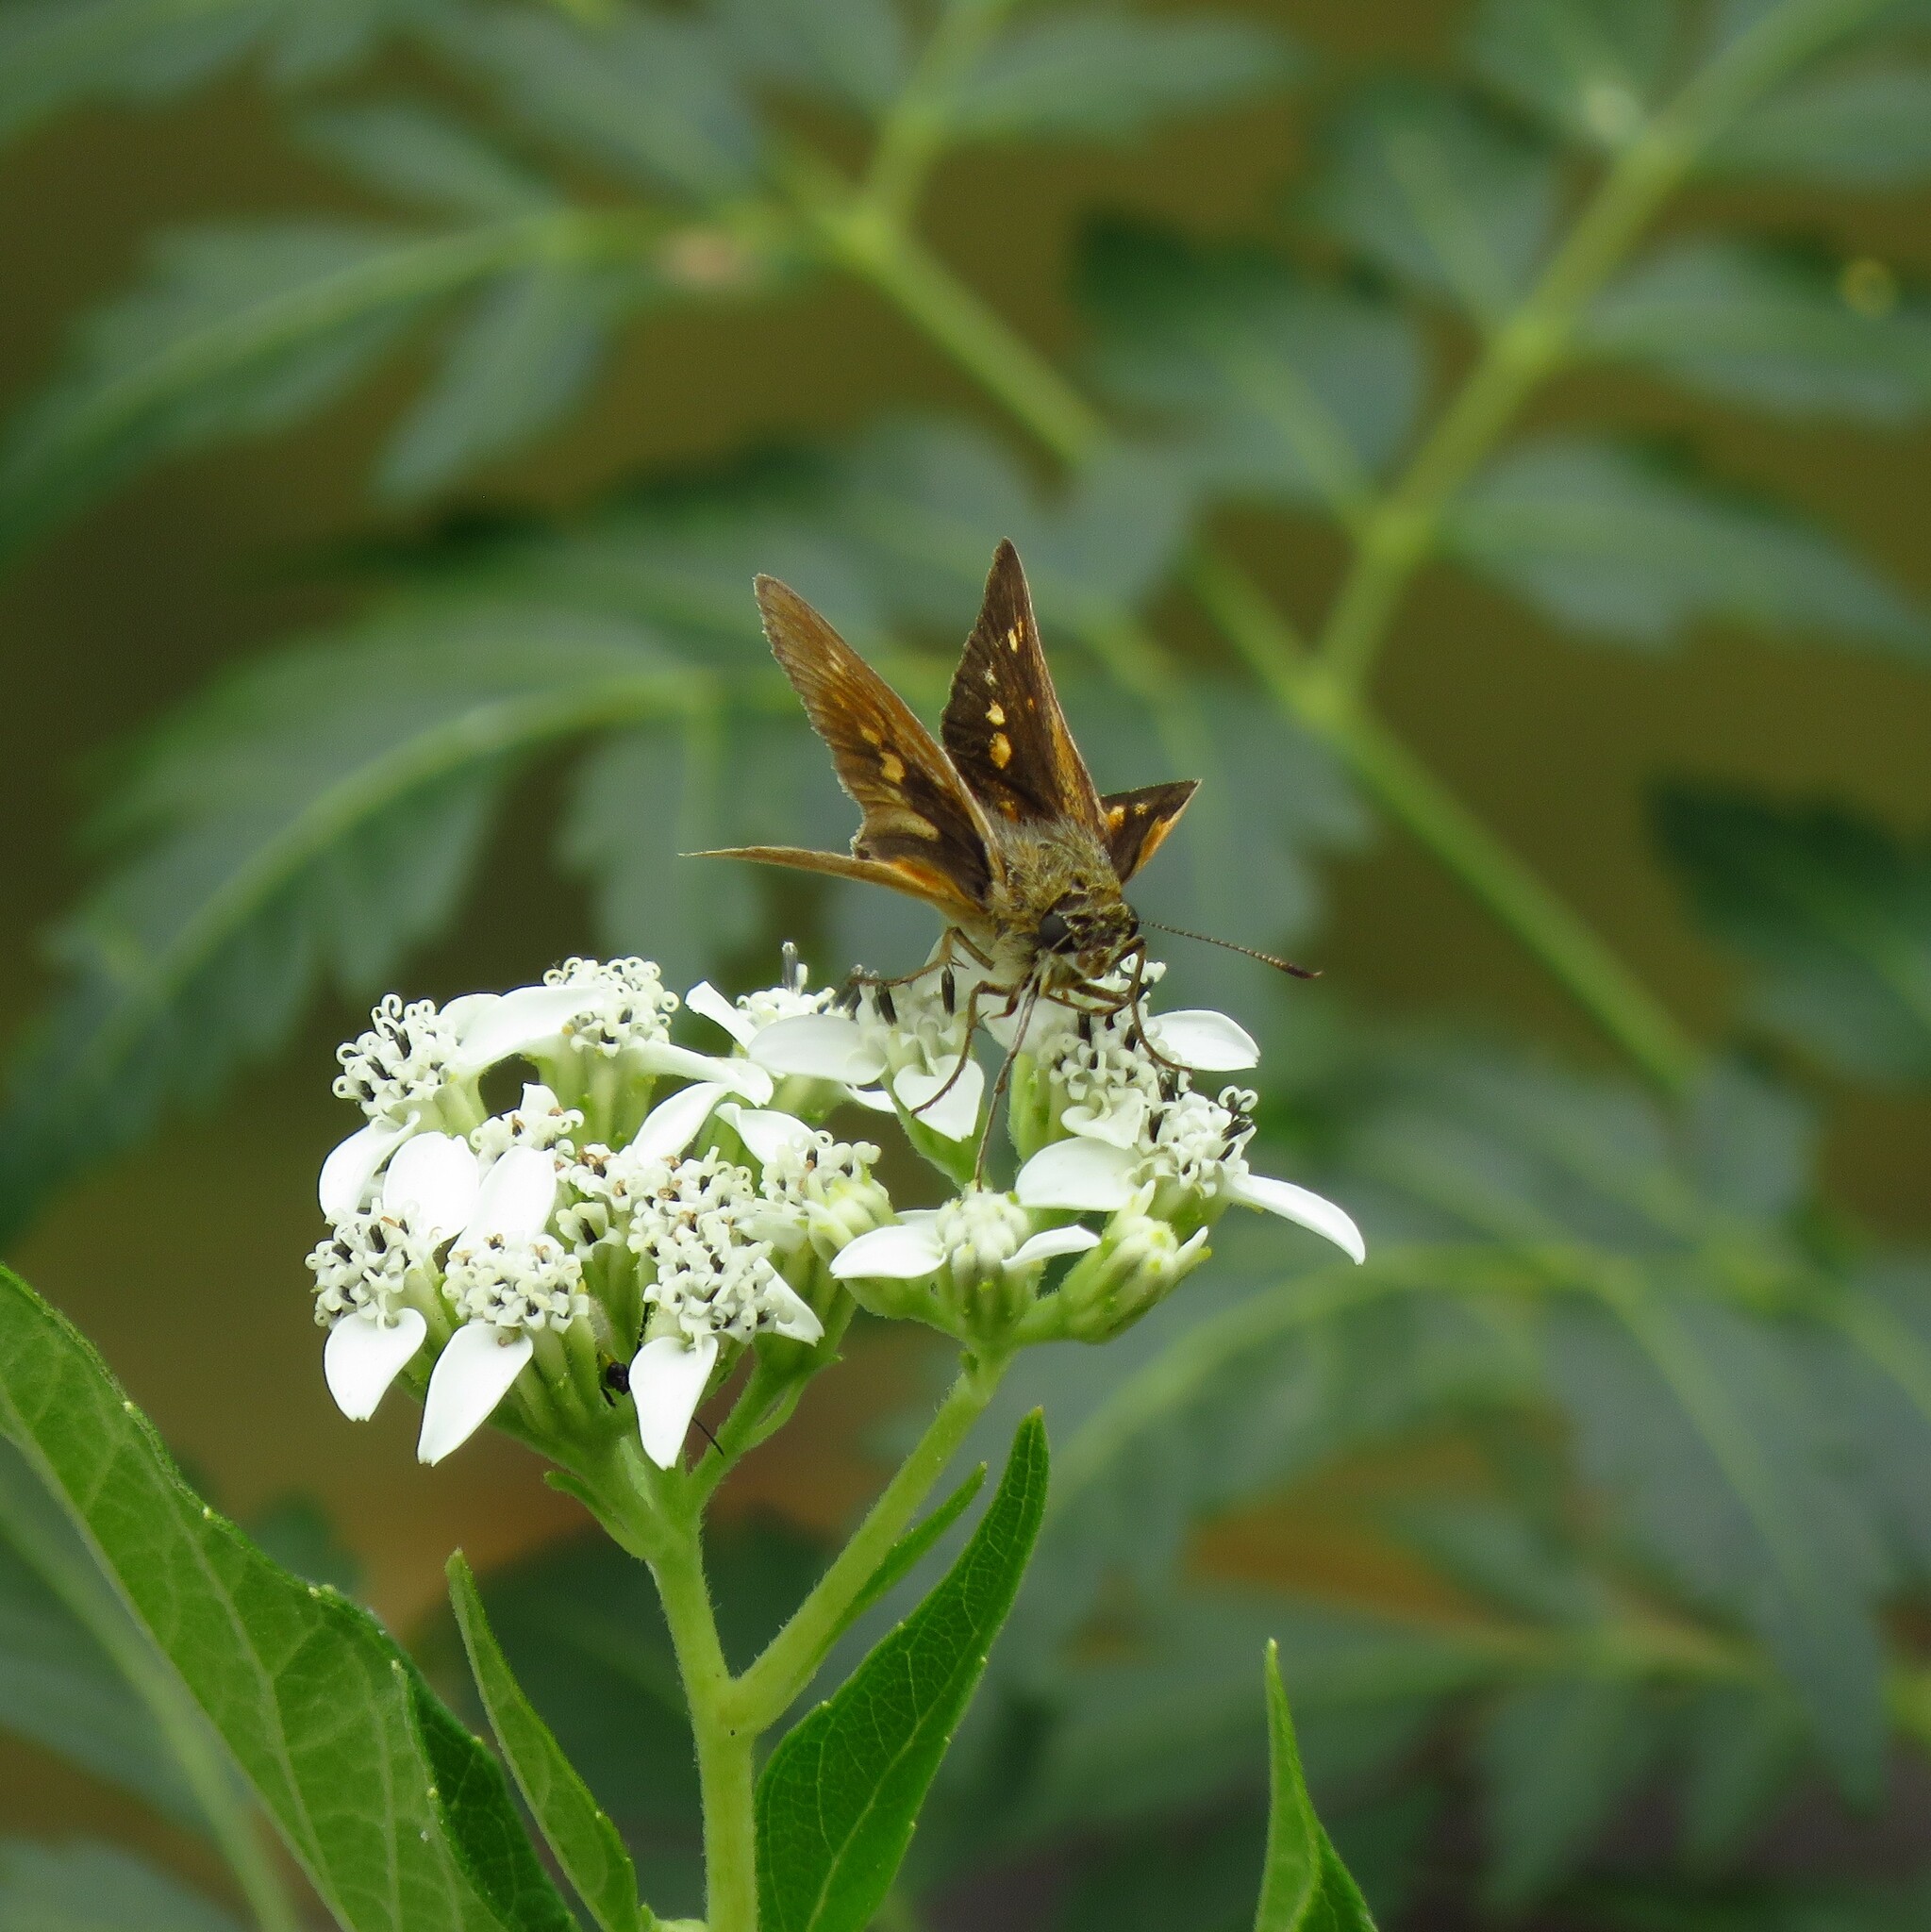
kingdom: Animalia
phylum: Arthropoda
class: Insecta
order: Lepidoptera
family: Hesperiidae
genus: Euphyes
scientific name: Euphyes dion
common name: Dion skipper
